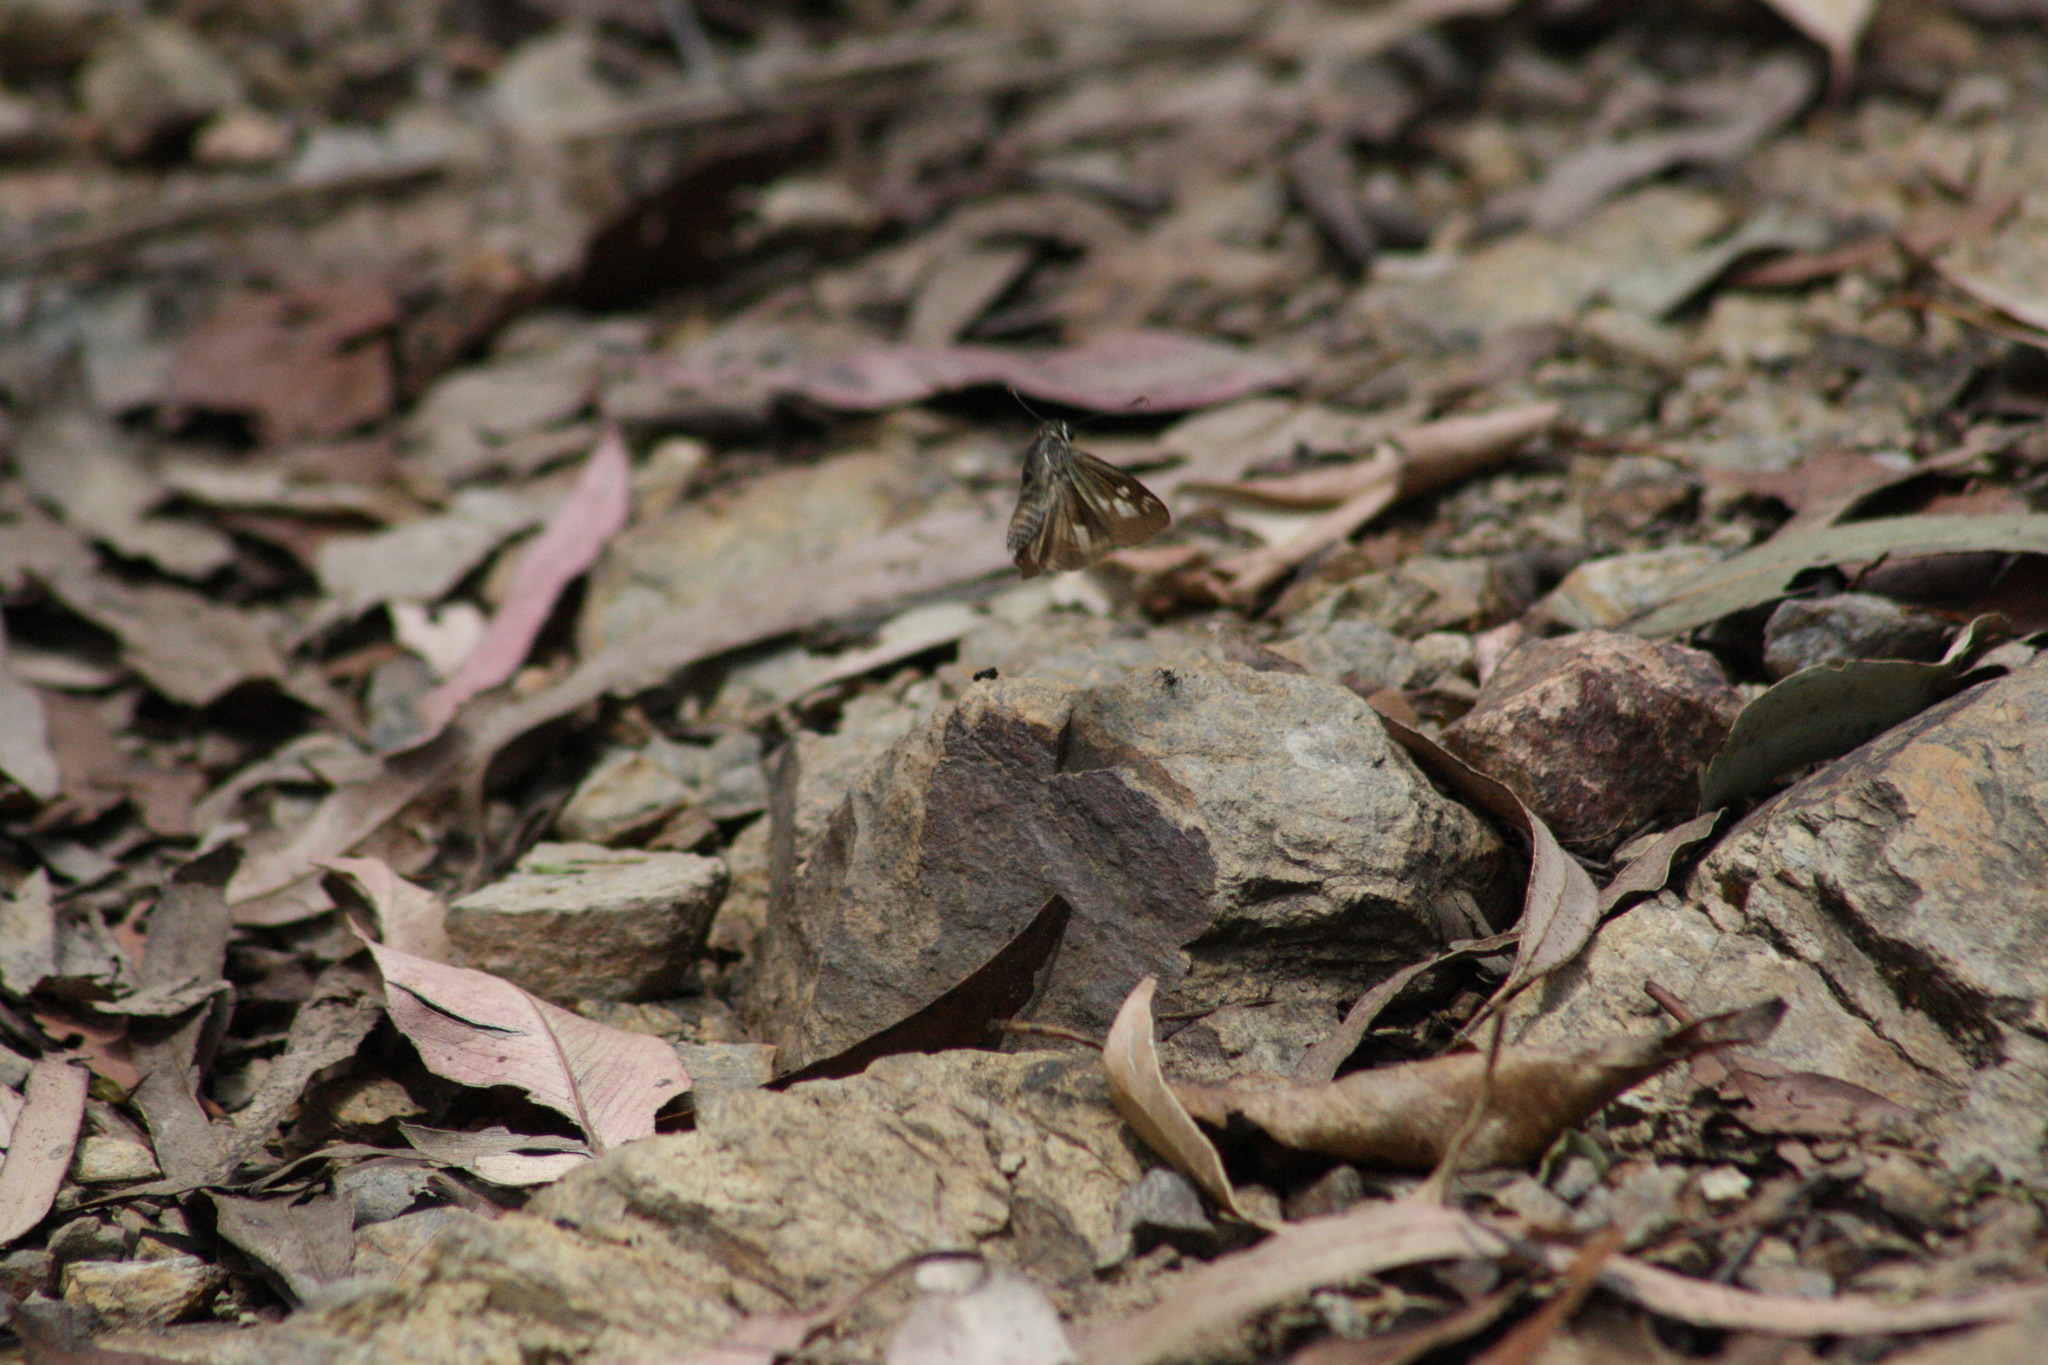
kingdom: Animalia
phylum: Arthropoda
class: Insecta
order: Lepidoptera
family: Hesperiidae
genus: Trapezites
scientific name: Trapezites petalia
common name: Black-ringed ochre
